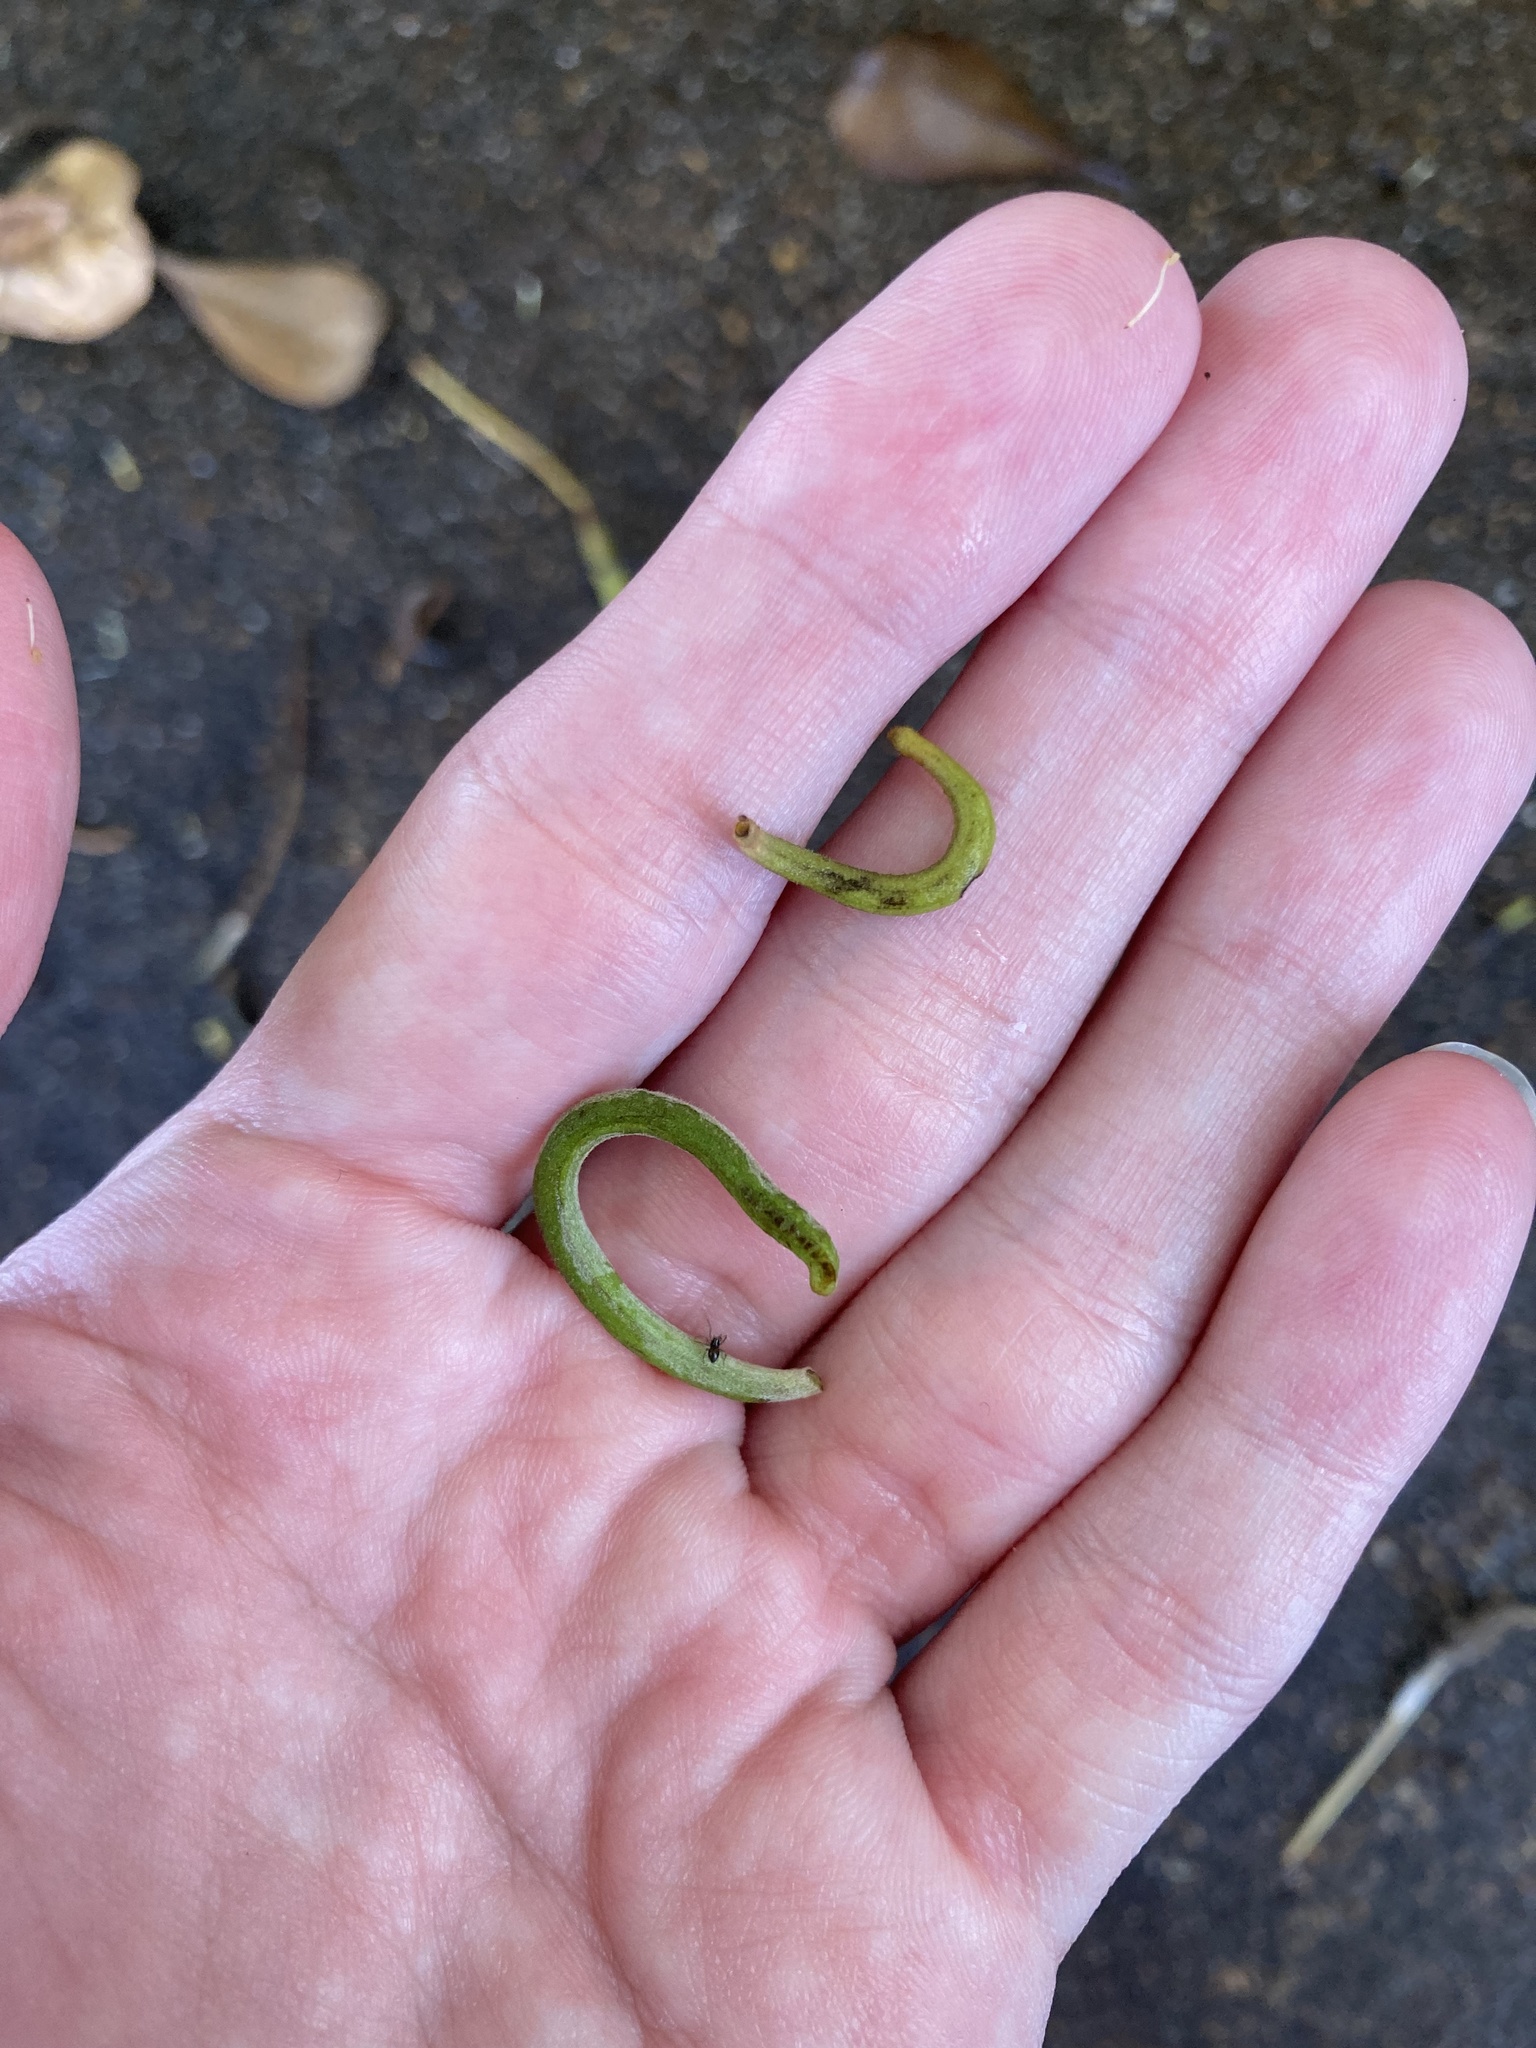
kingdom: Animalia
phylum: Arthropoda
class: Arachnida
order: Trombidiformes
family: Eriophyidae
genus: Eriophyes
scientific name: Eriophyes
